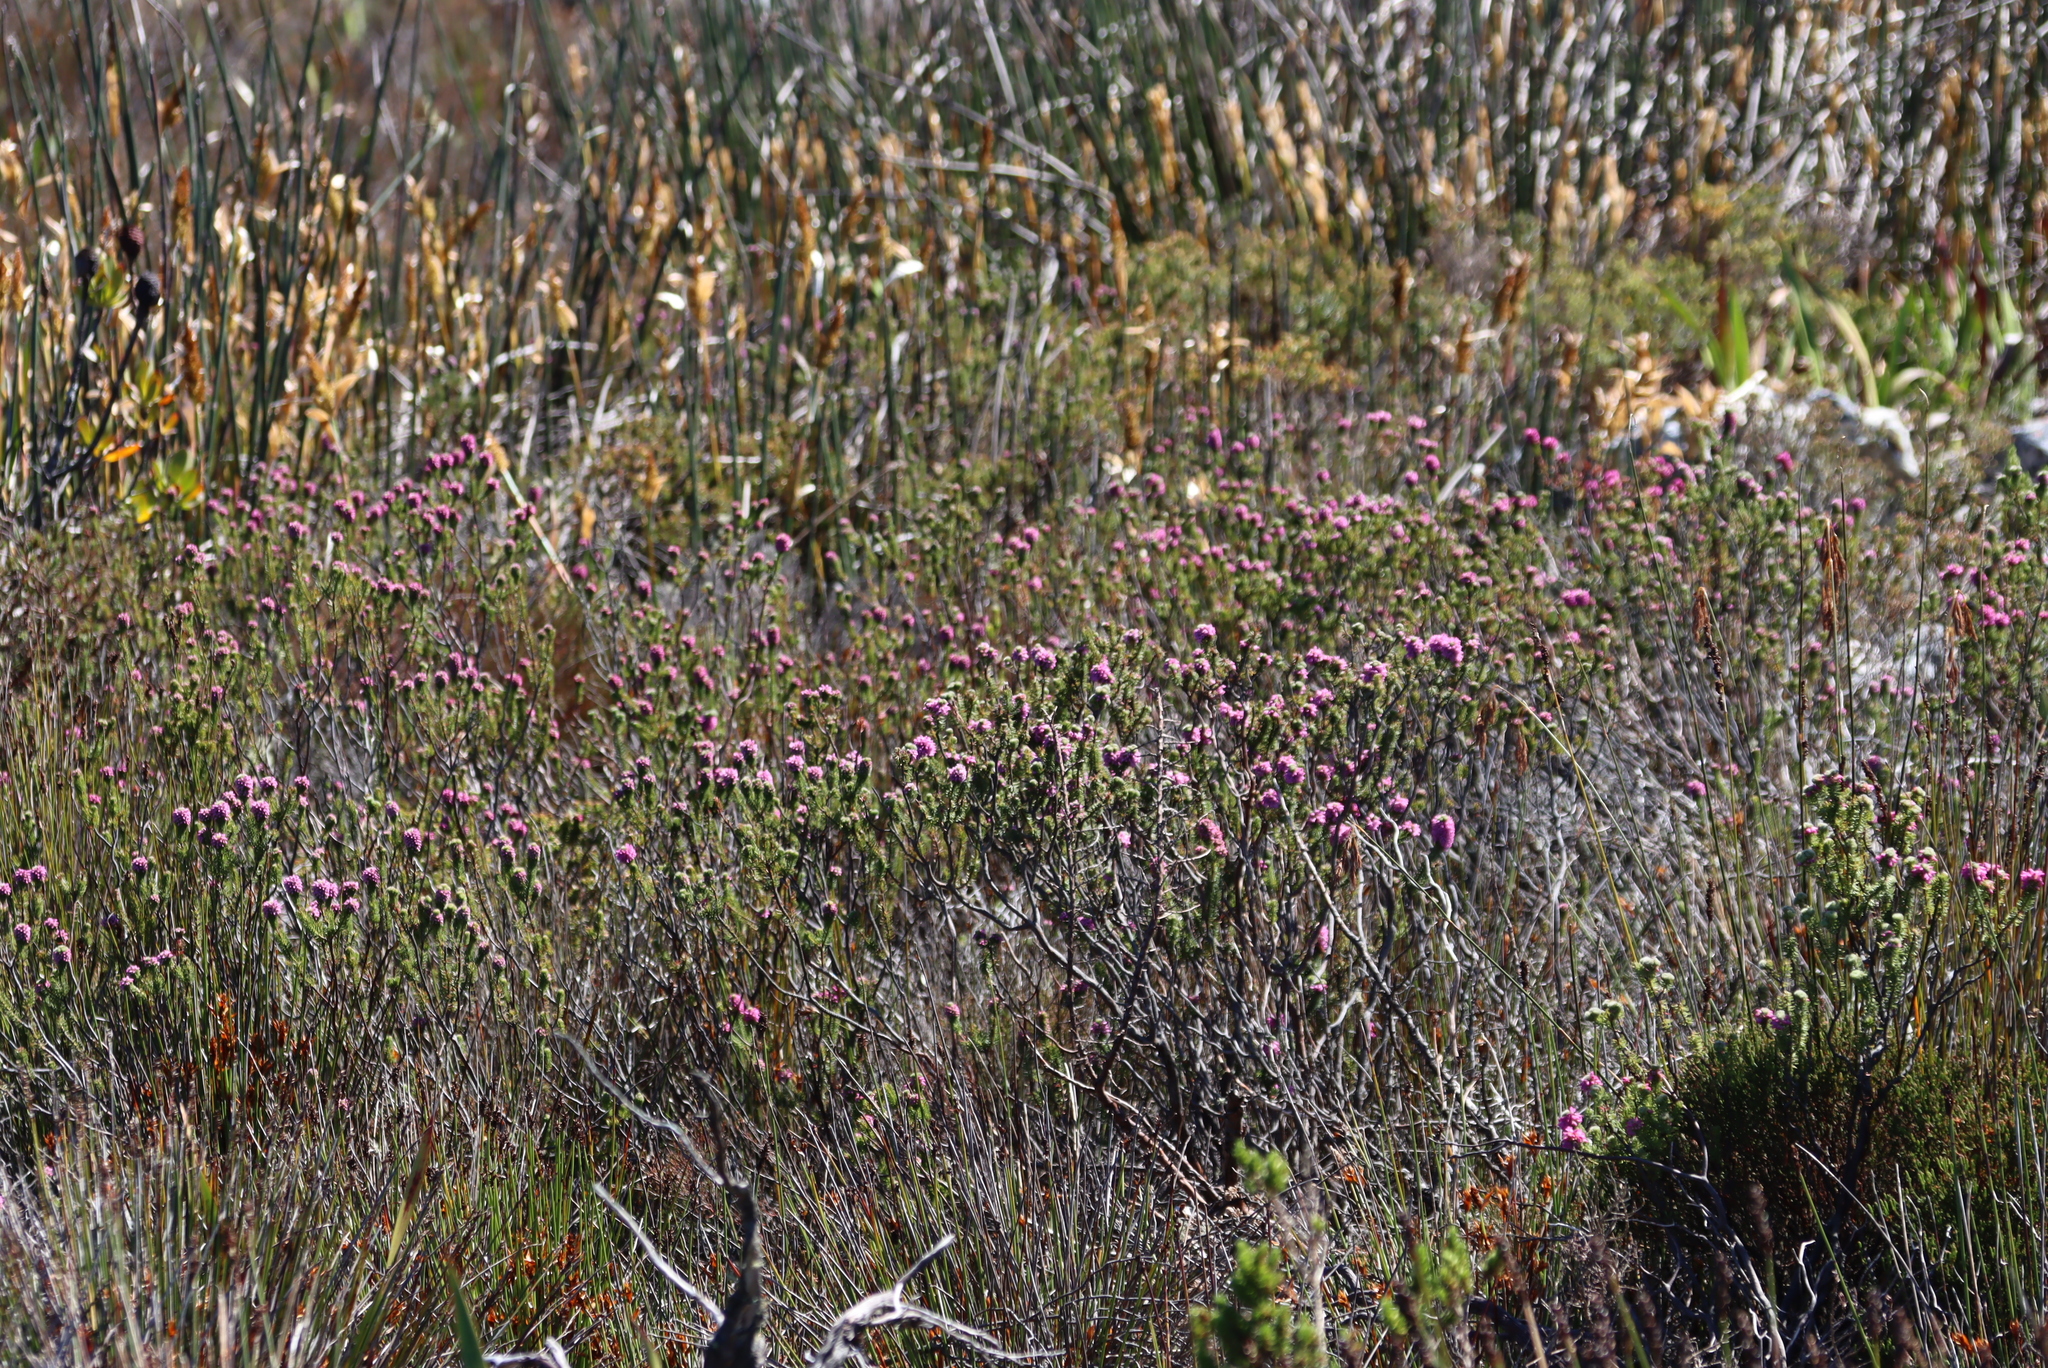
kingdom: Plantae
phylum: Tracheophyta
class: Magnoliopsida
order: Ericales
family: Ericaceae
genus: Erica
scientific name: Erica empetrina
